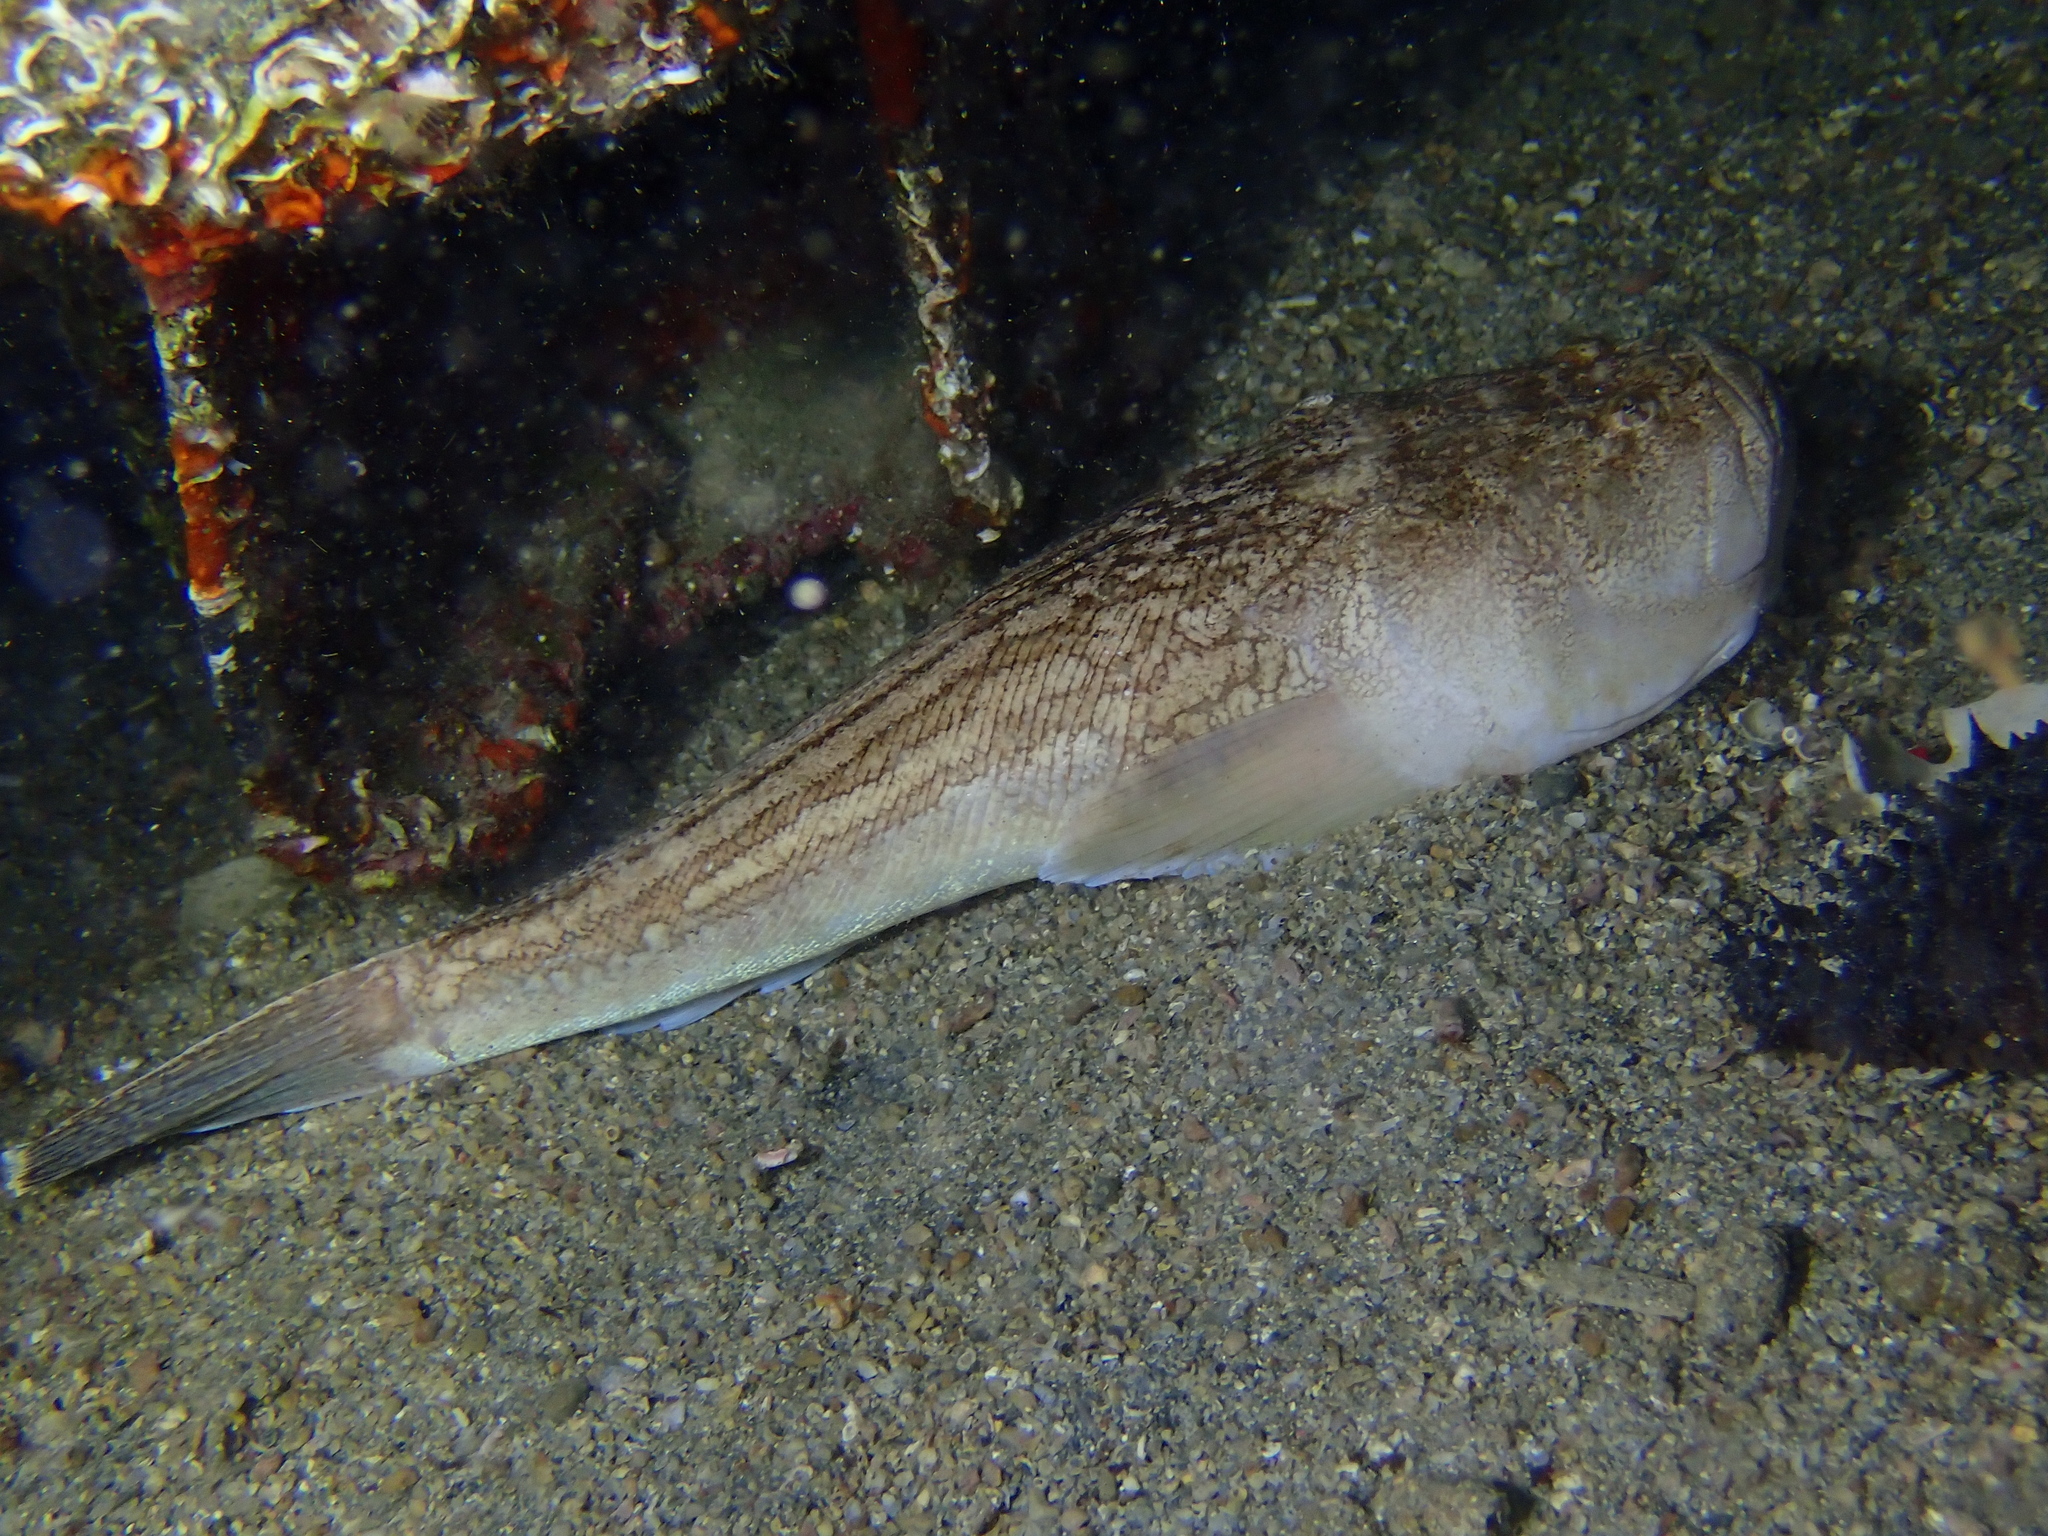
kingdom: Animalia
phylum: Chordata
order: Perciformes
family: Uranoscopidae
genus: Uranoscopus
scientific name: Uranoscopus scaber
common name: Stargazer
